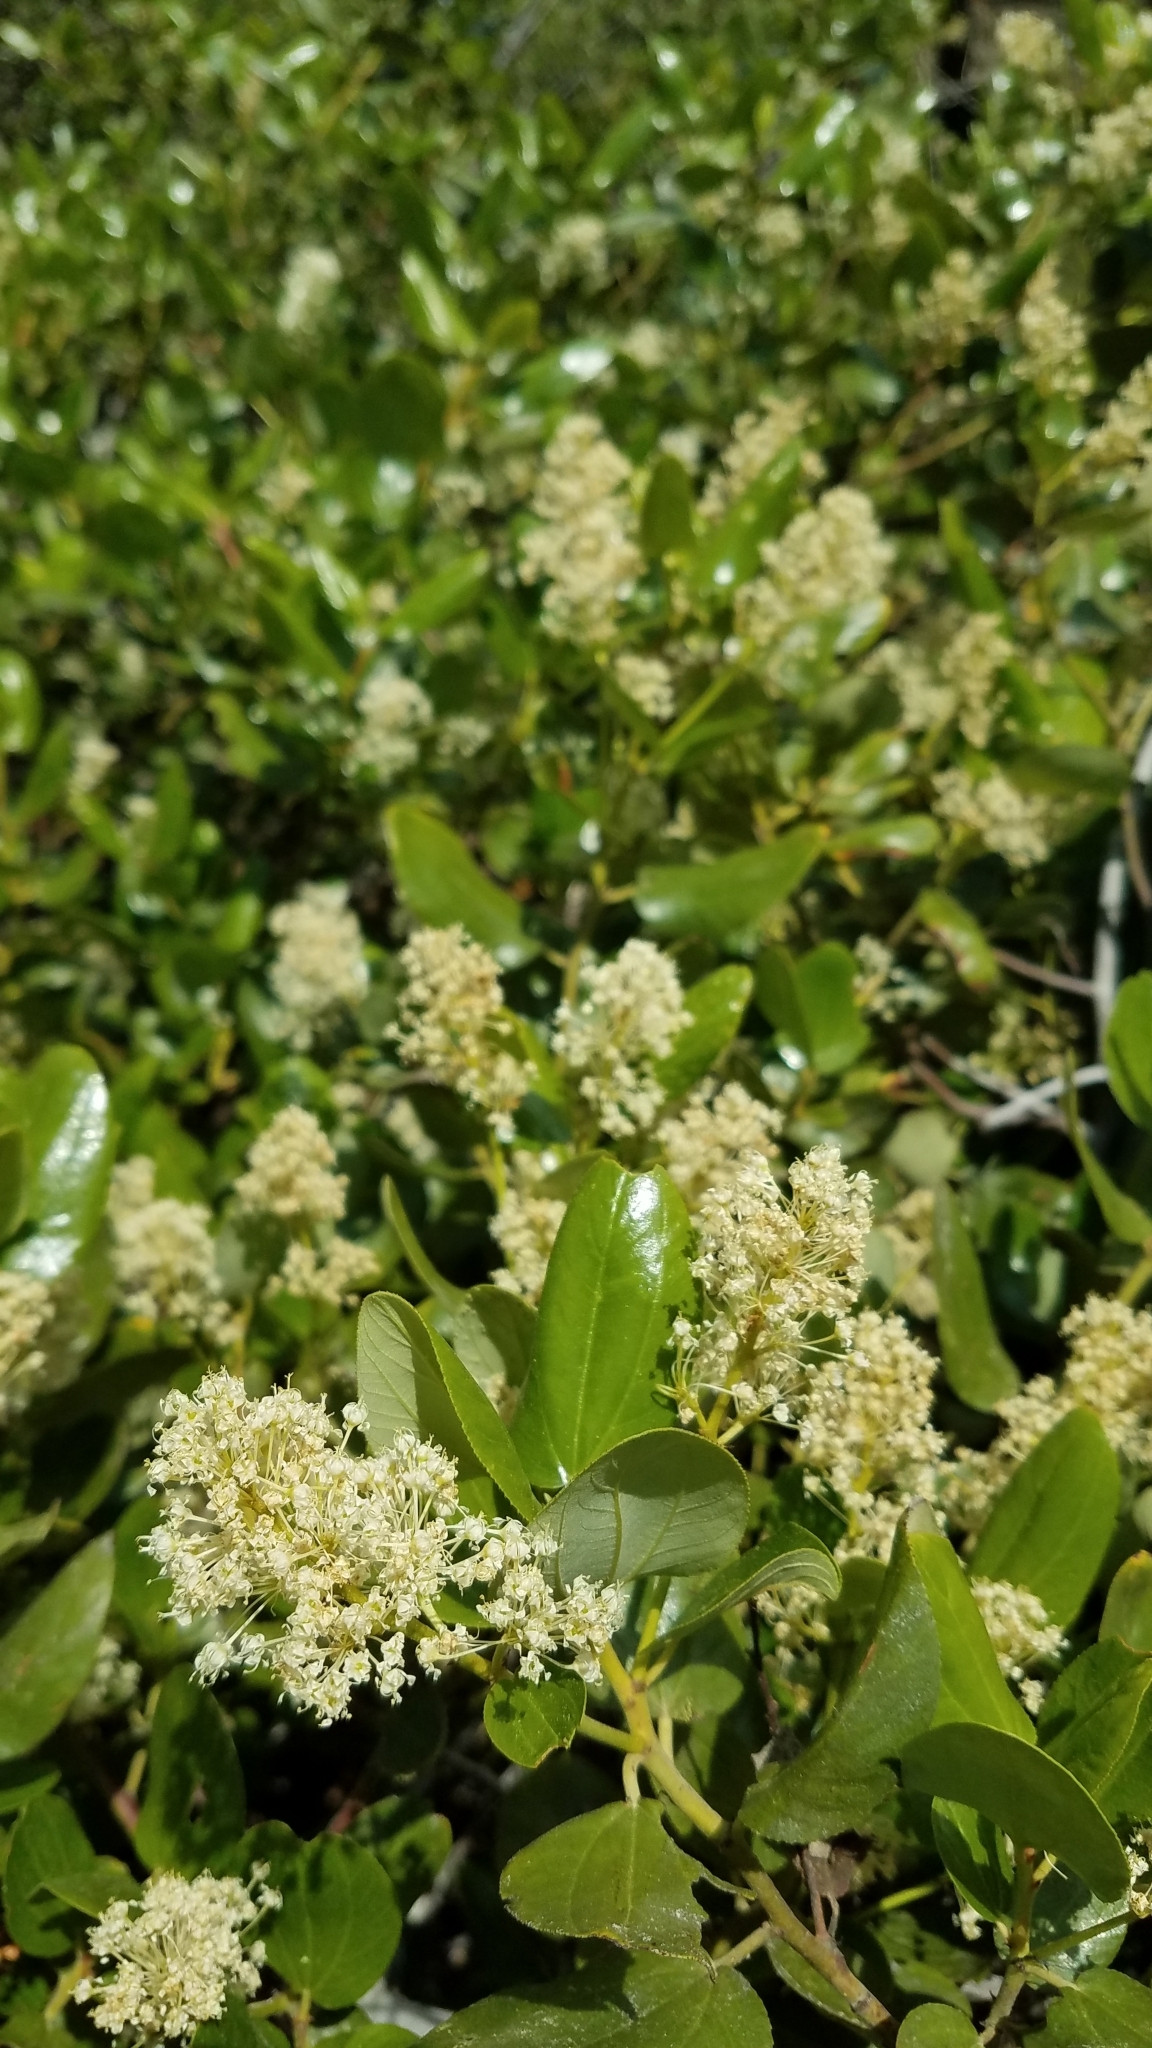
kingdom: Plantae
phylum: Tracheophyta
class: Magnoliopsida
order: Rosales
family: Rhamnaceae
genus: Ceanothus
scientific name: Ceanothus velutinus
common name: Snowbrush
